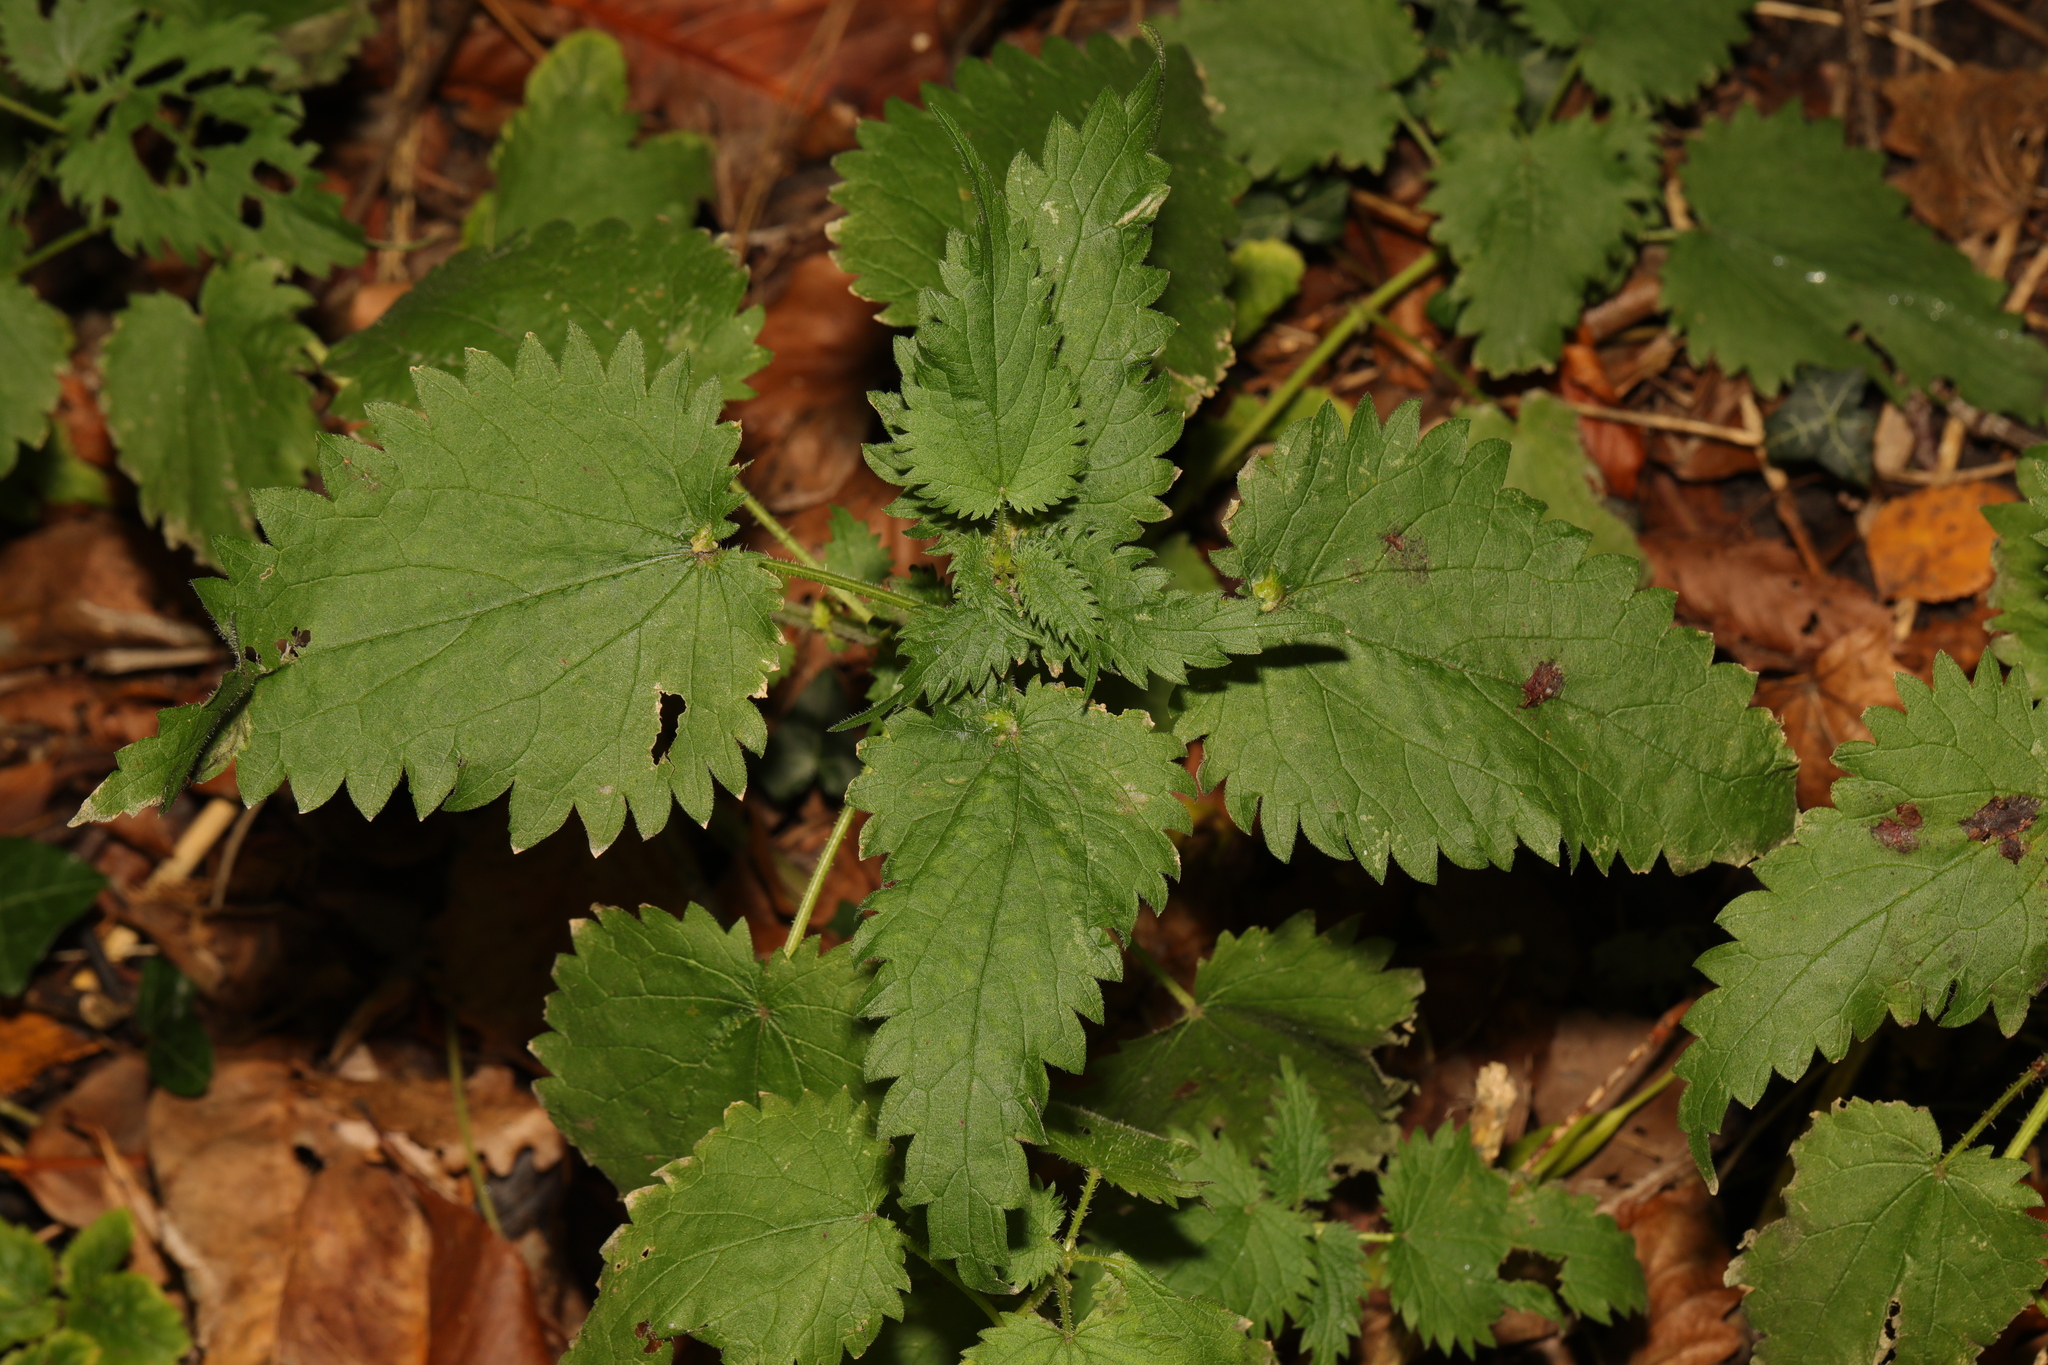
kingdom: Plantae
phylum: Tracheophyta
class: Magnoliopsida
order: Rosales
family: Urticaceae
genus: Urtica
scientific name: Urtica dioica
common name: Common nettle
